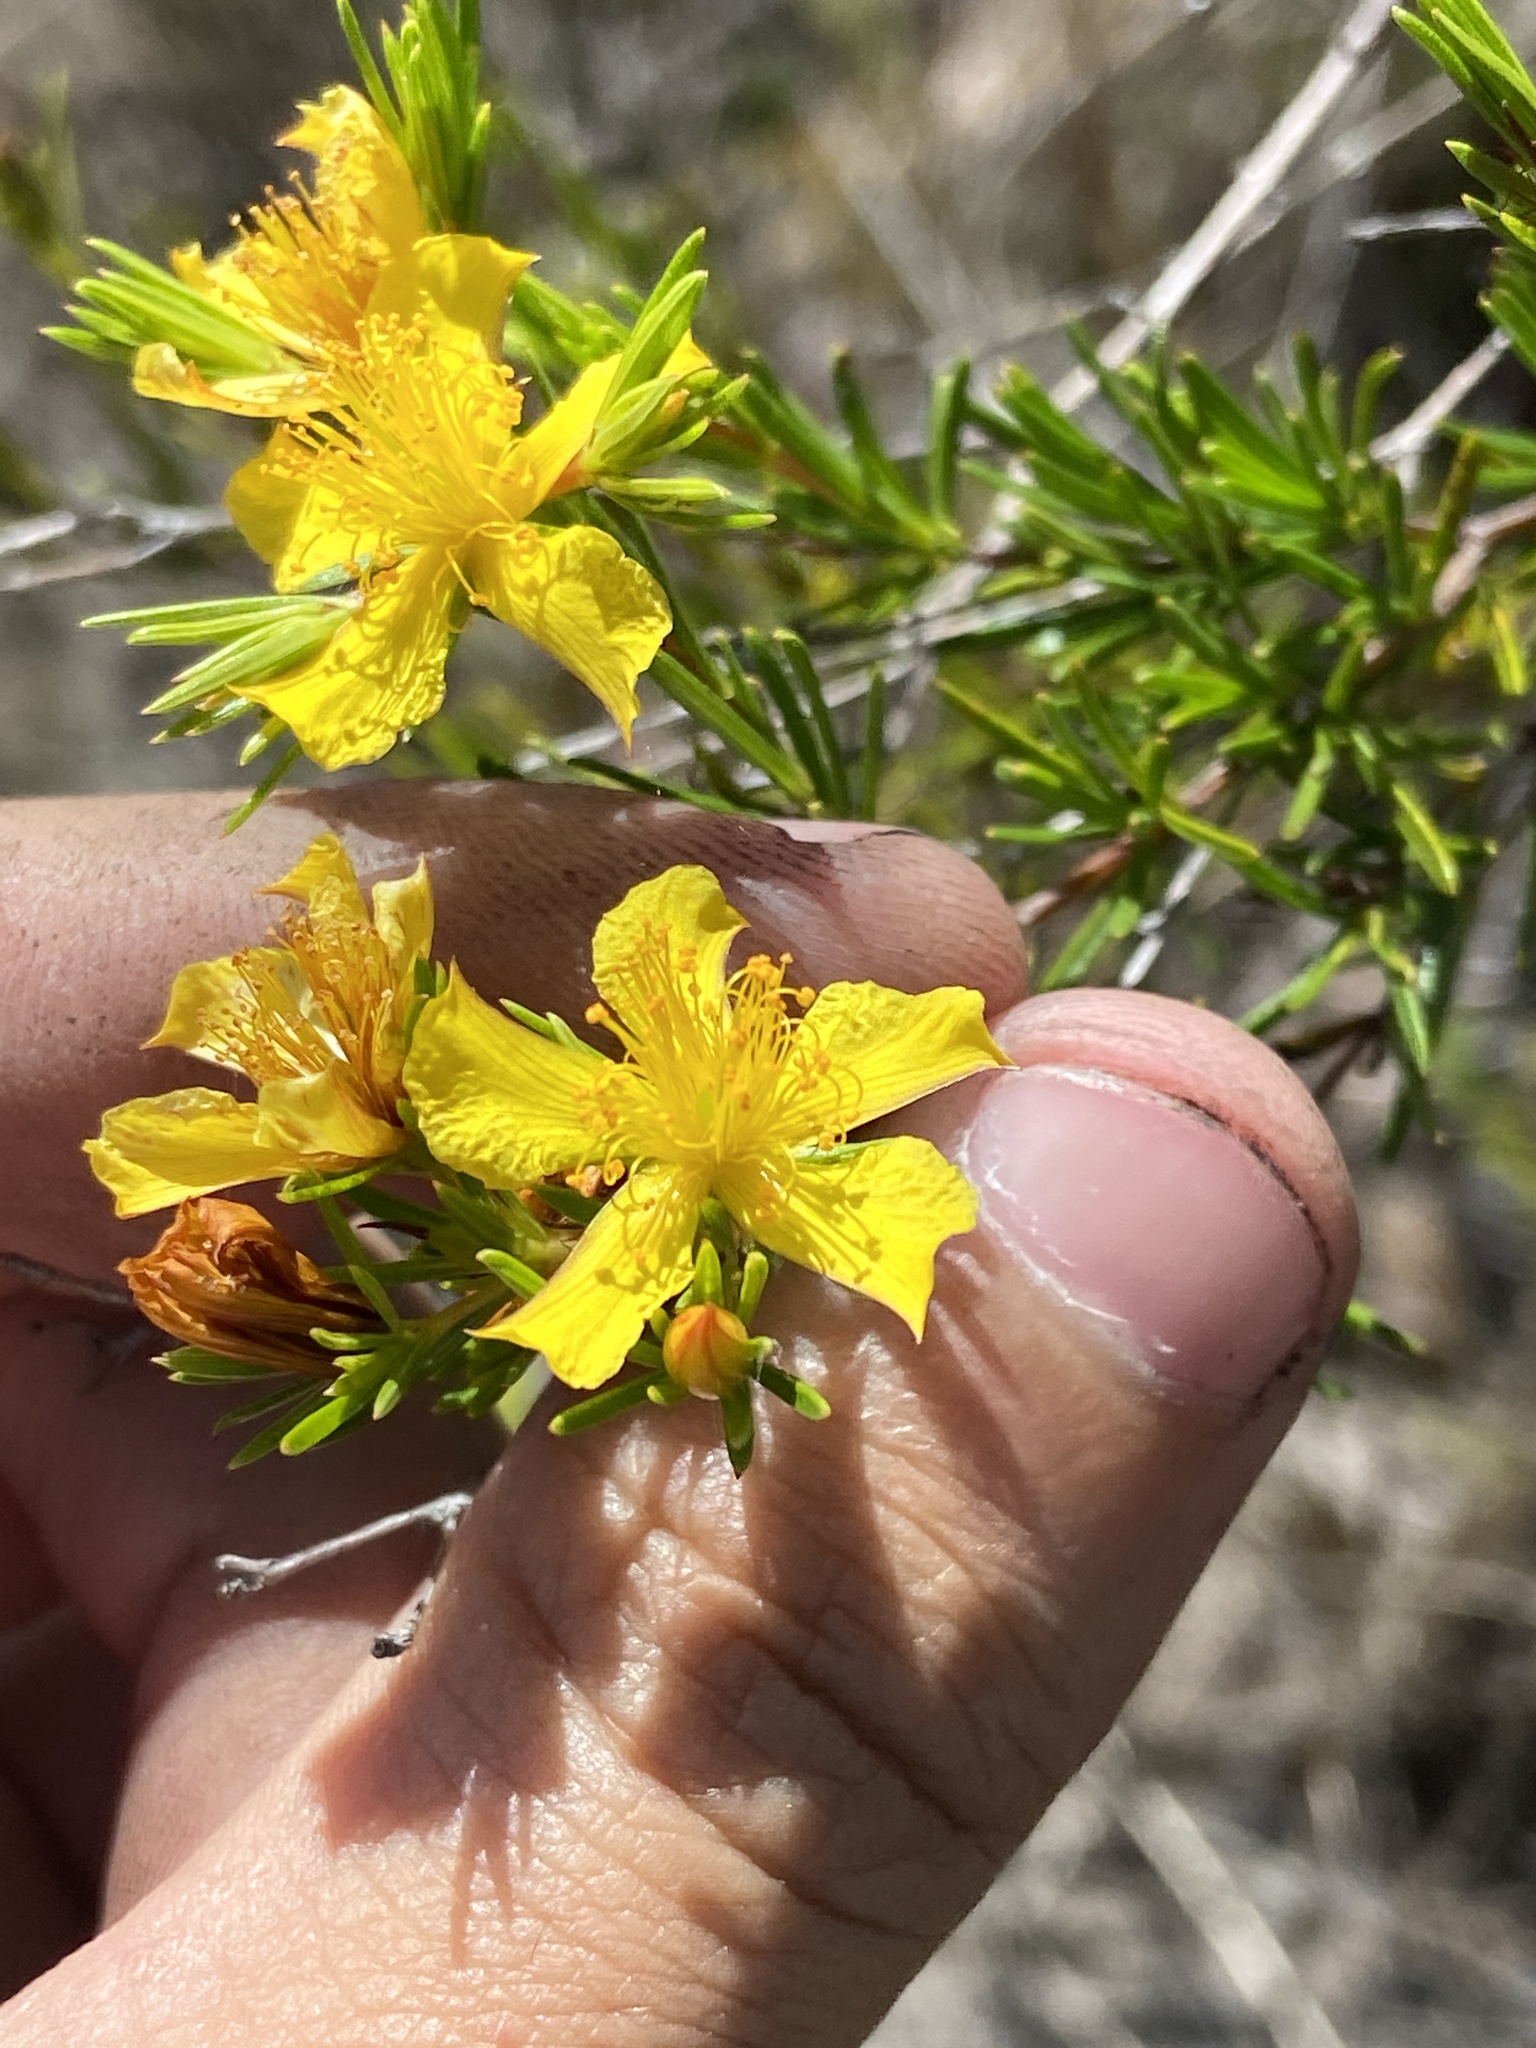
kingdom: Plantae
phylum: Tracheophyta
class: Magnoliopsida
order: Malpighiales
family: Hypericaceae
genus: Hypericum
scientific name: Hypericum fasciculatum
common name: Peelbark st. john's wort
